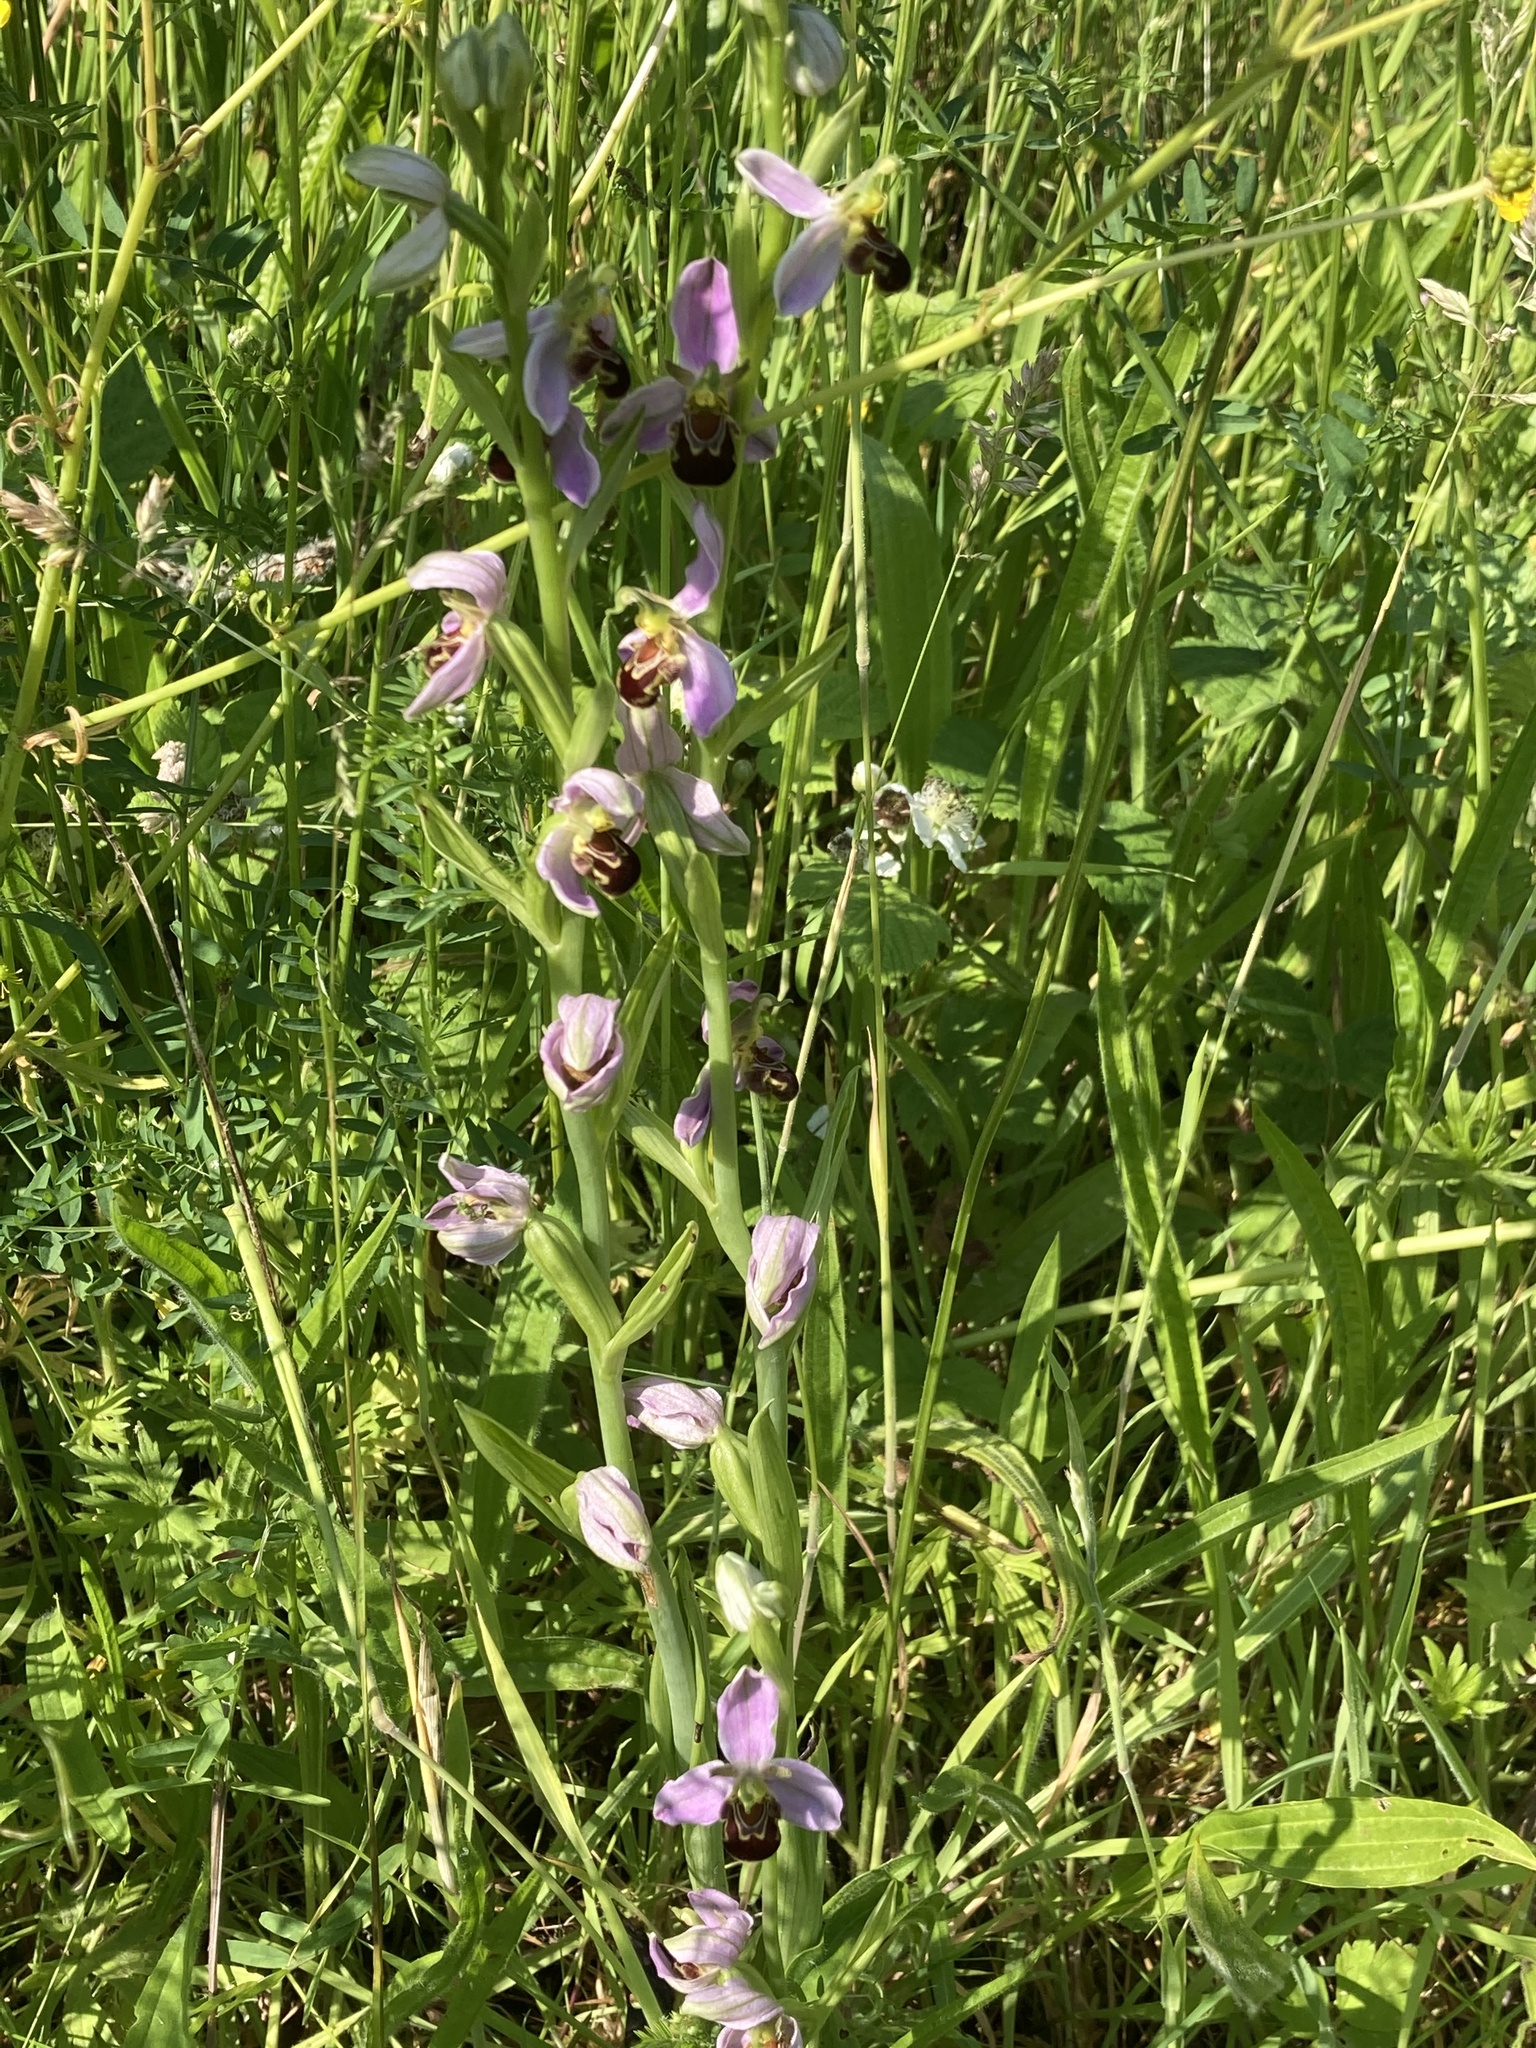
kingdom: Plantae
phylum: Tracheophyta
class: Liliopsida
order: Asparagales
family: Orchidaceae
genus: Ophrys
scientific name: Ophrys apifera
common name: Bee orchid
